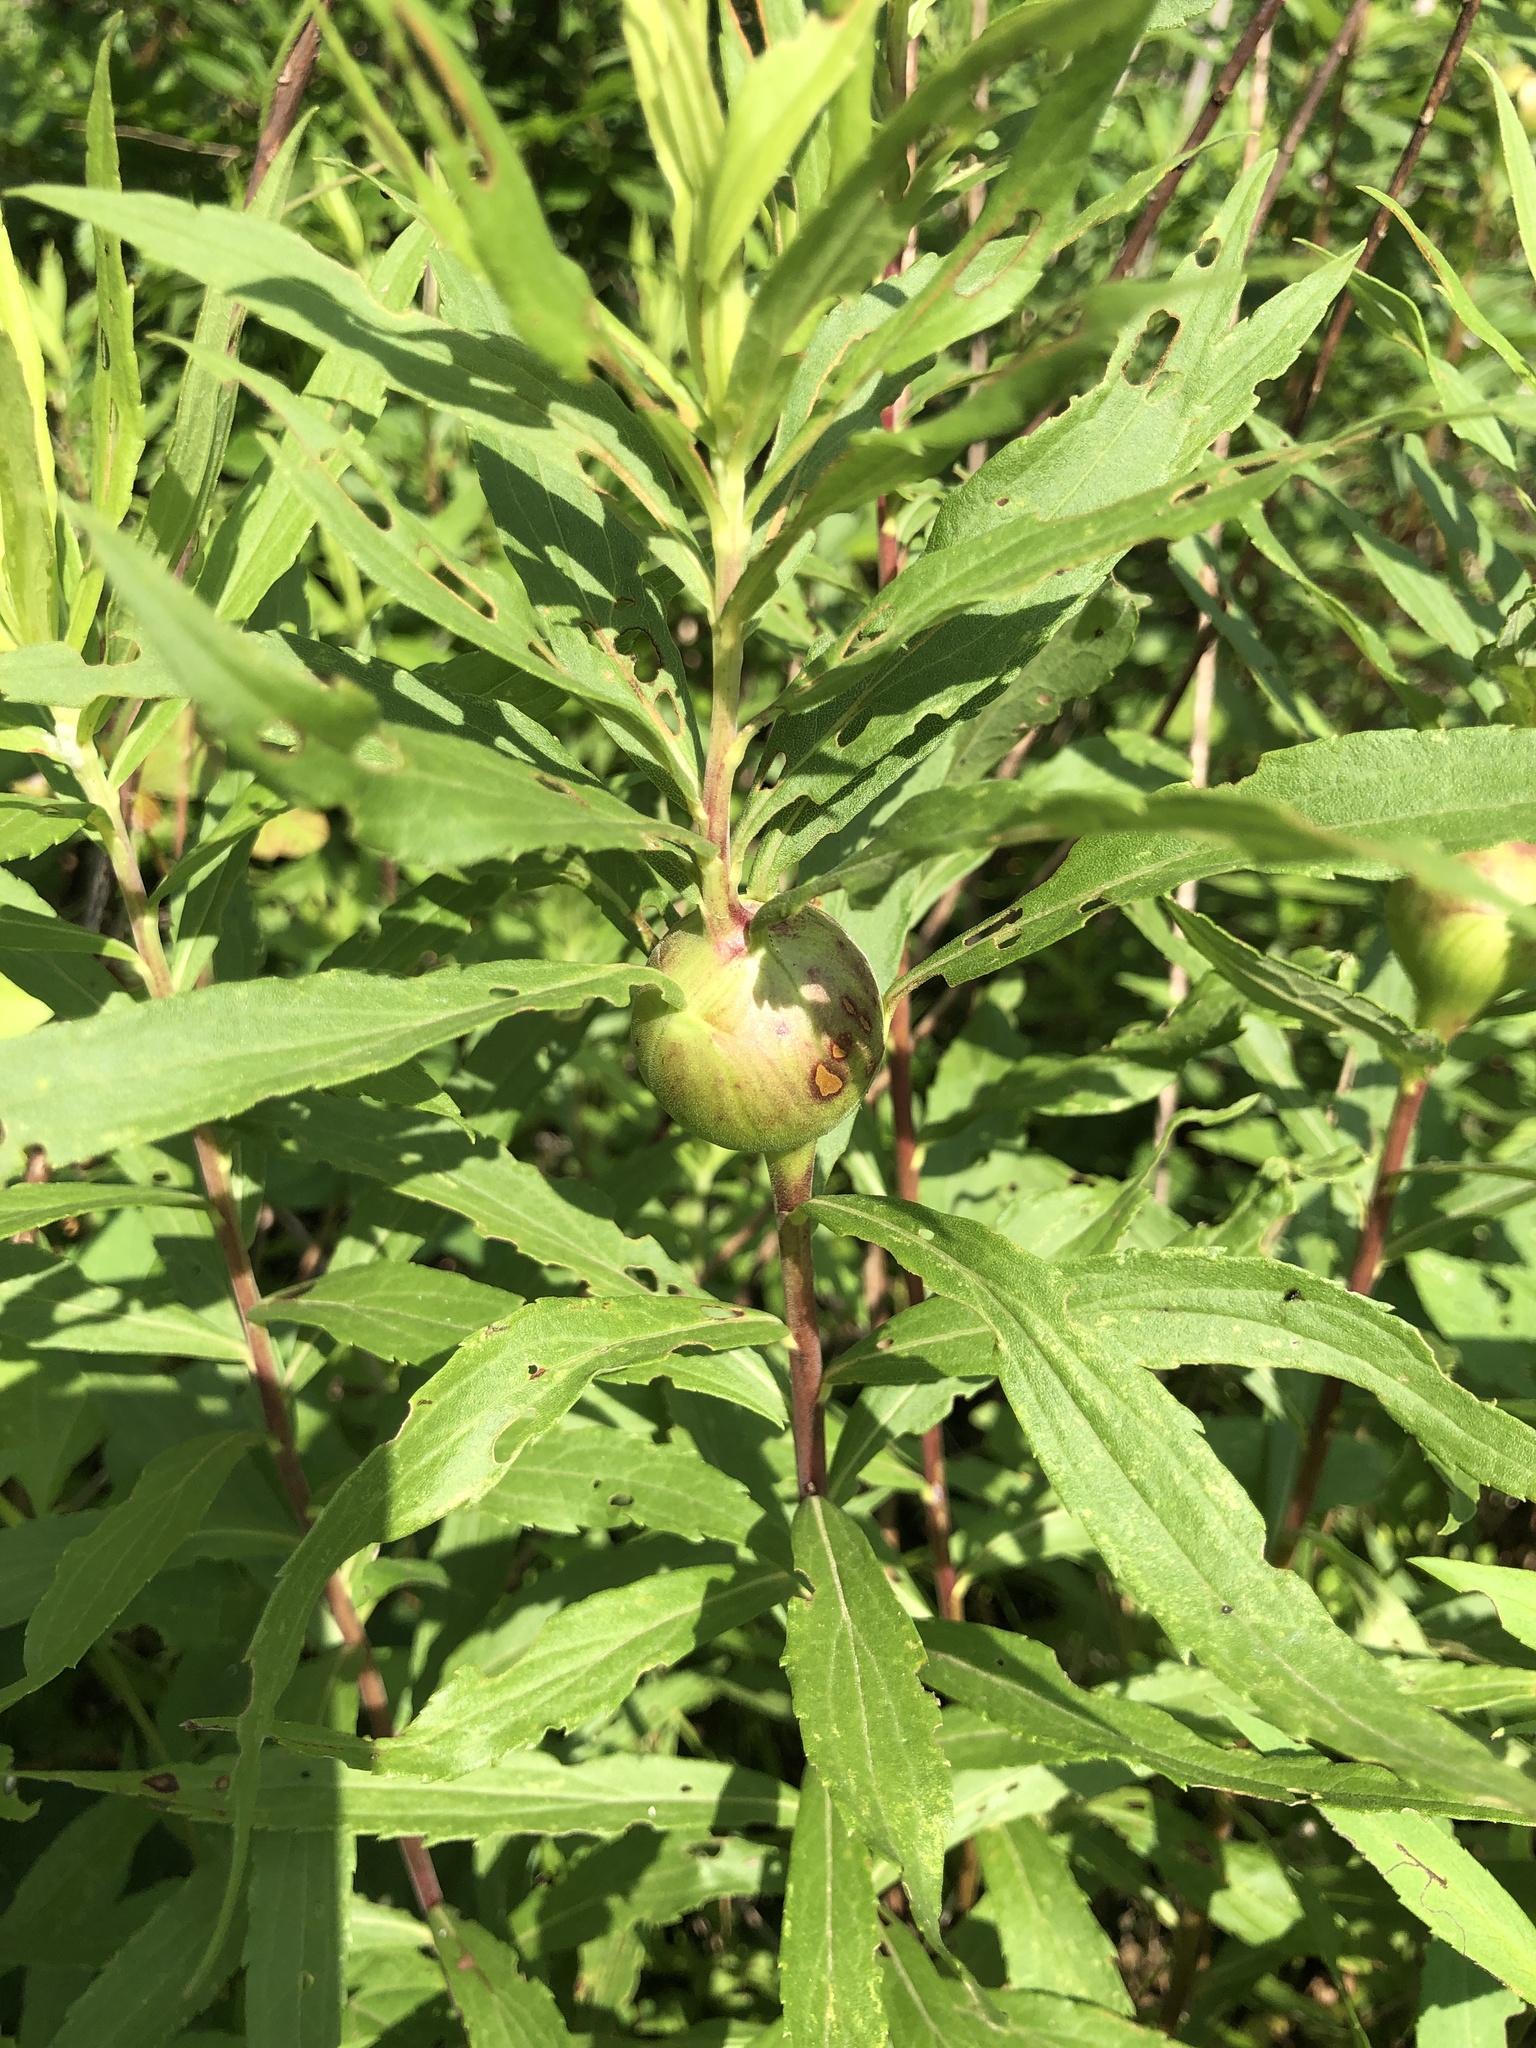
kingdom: Animalia
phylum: Arthropoda
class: Insecta
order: Diptera
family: Tephritidae
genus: Eurosta
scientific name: Eurosta solidaginis
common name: Goldenrod gall fly
